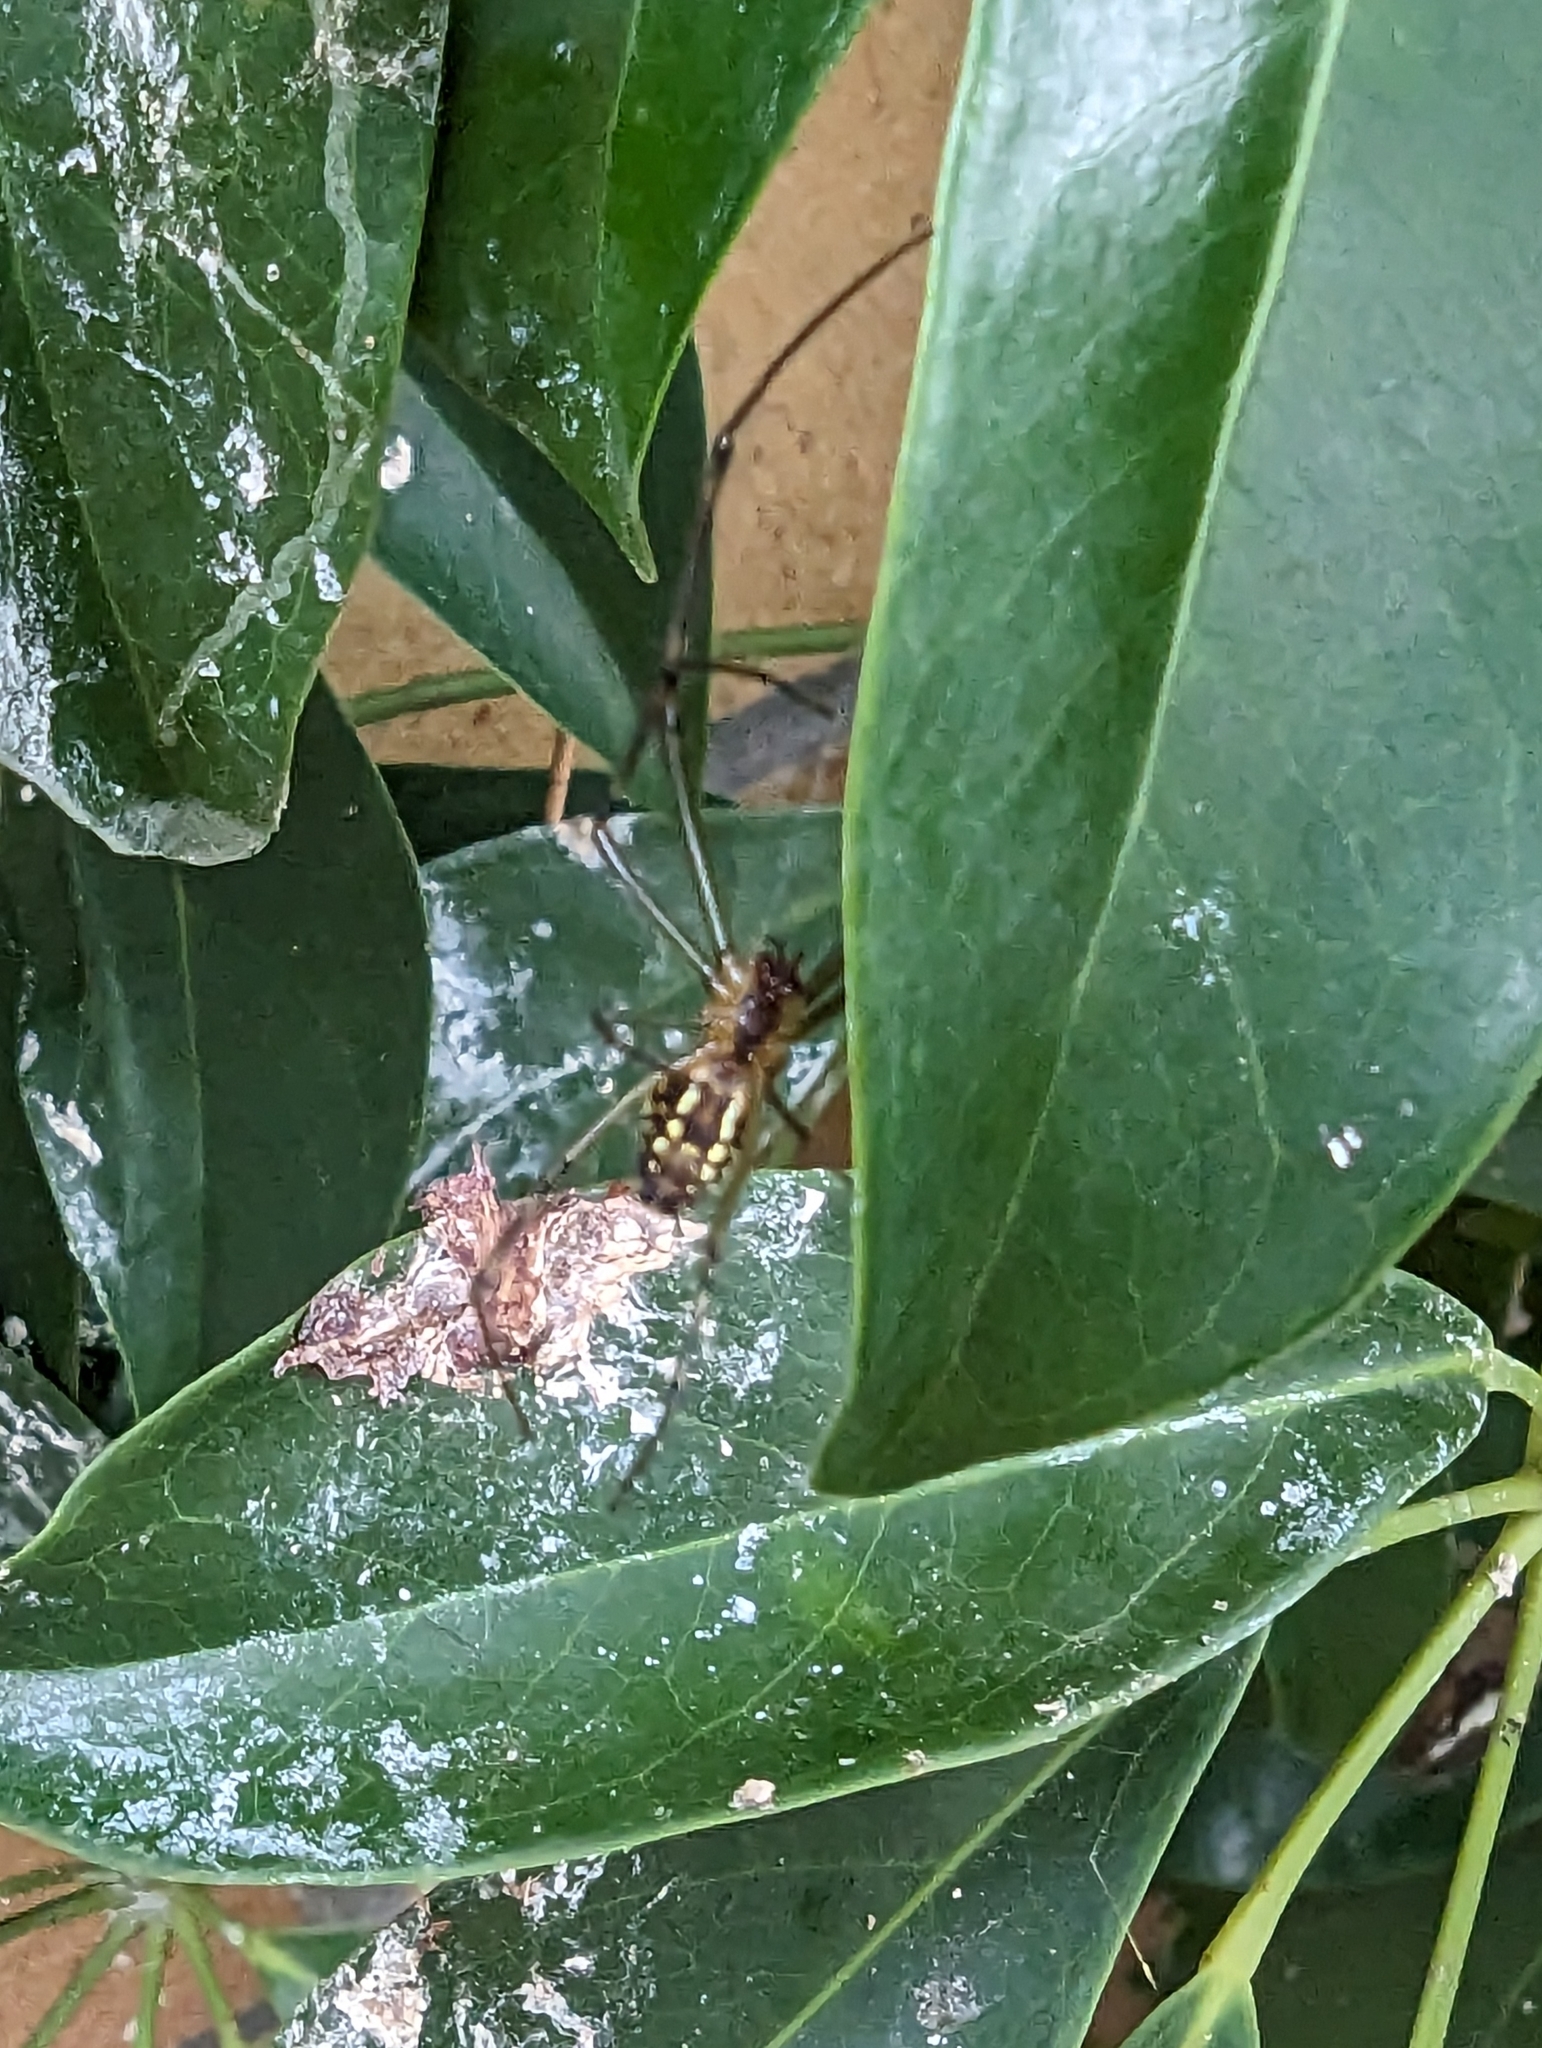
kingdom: Animalia
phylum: Arthropoda
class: Arachnida
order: Araneae
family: Tetragnathidae
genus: Leucauge
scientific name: Leucauge dromedaria
